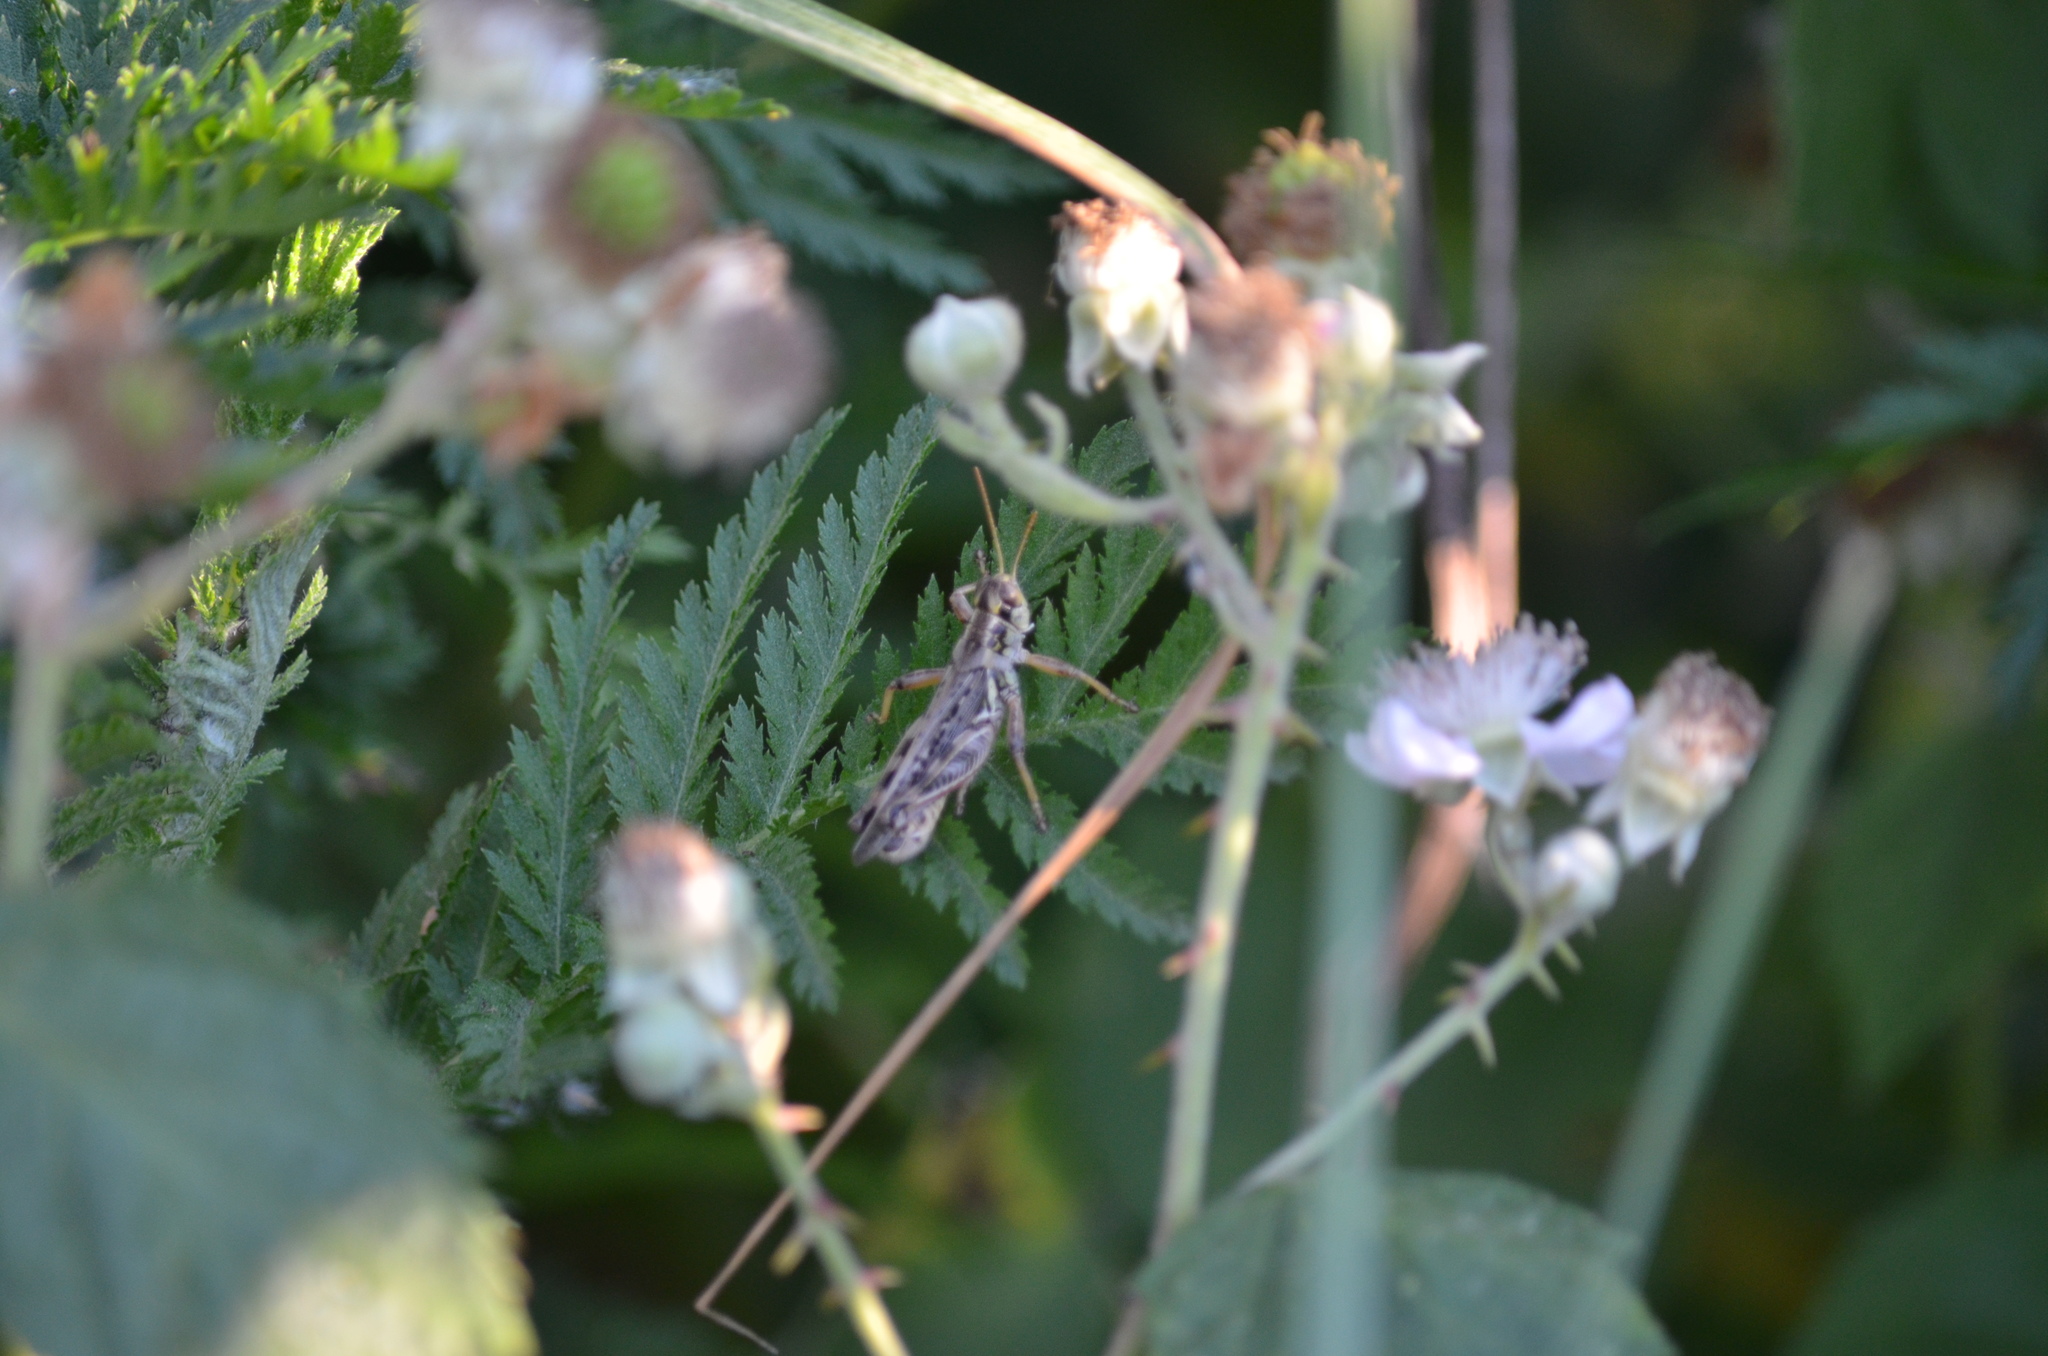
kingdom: Animalia
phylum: Arthropoda
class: Insecta
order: Orthoptera
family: Acrididae
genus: Melanoplus
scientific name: Melanoplus sanguinipes
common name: Migratory grasshopper
